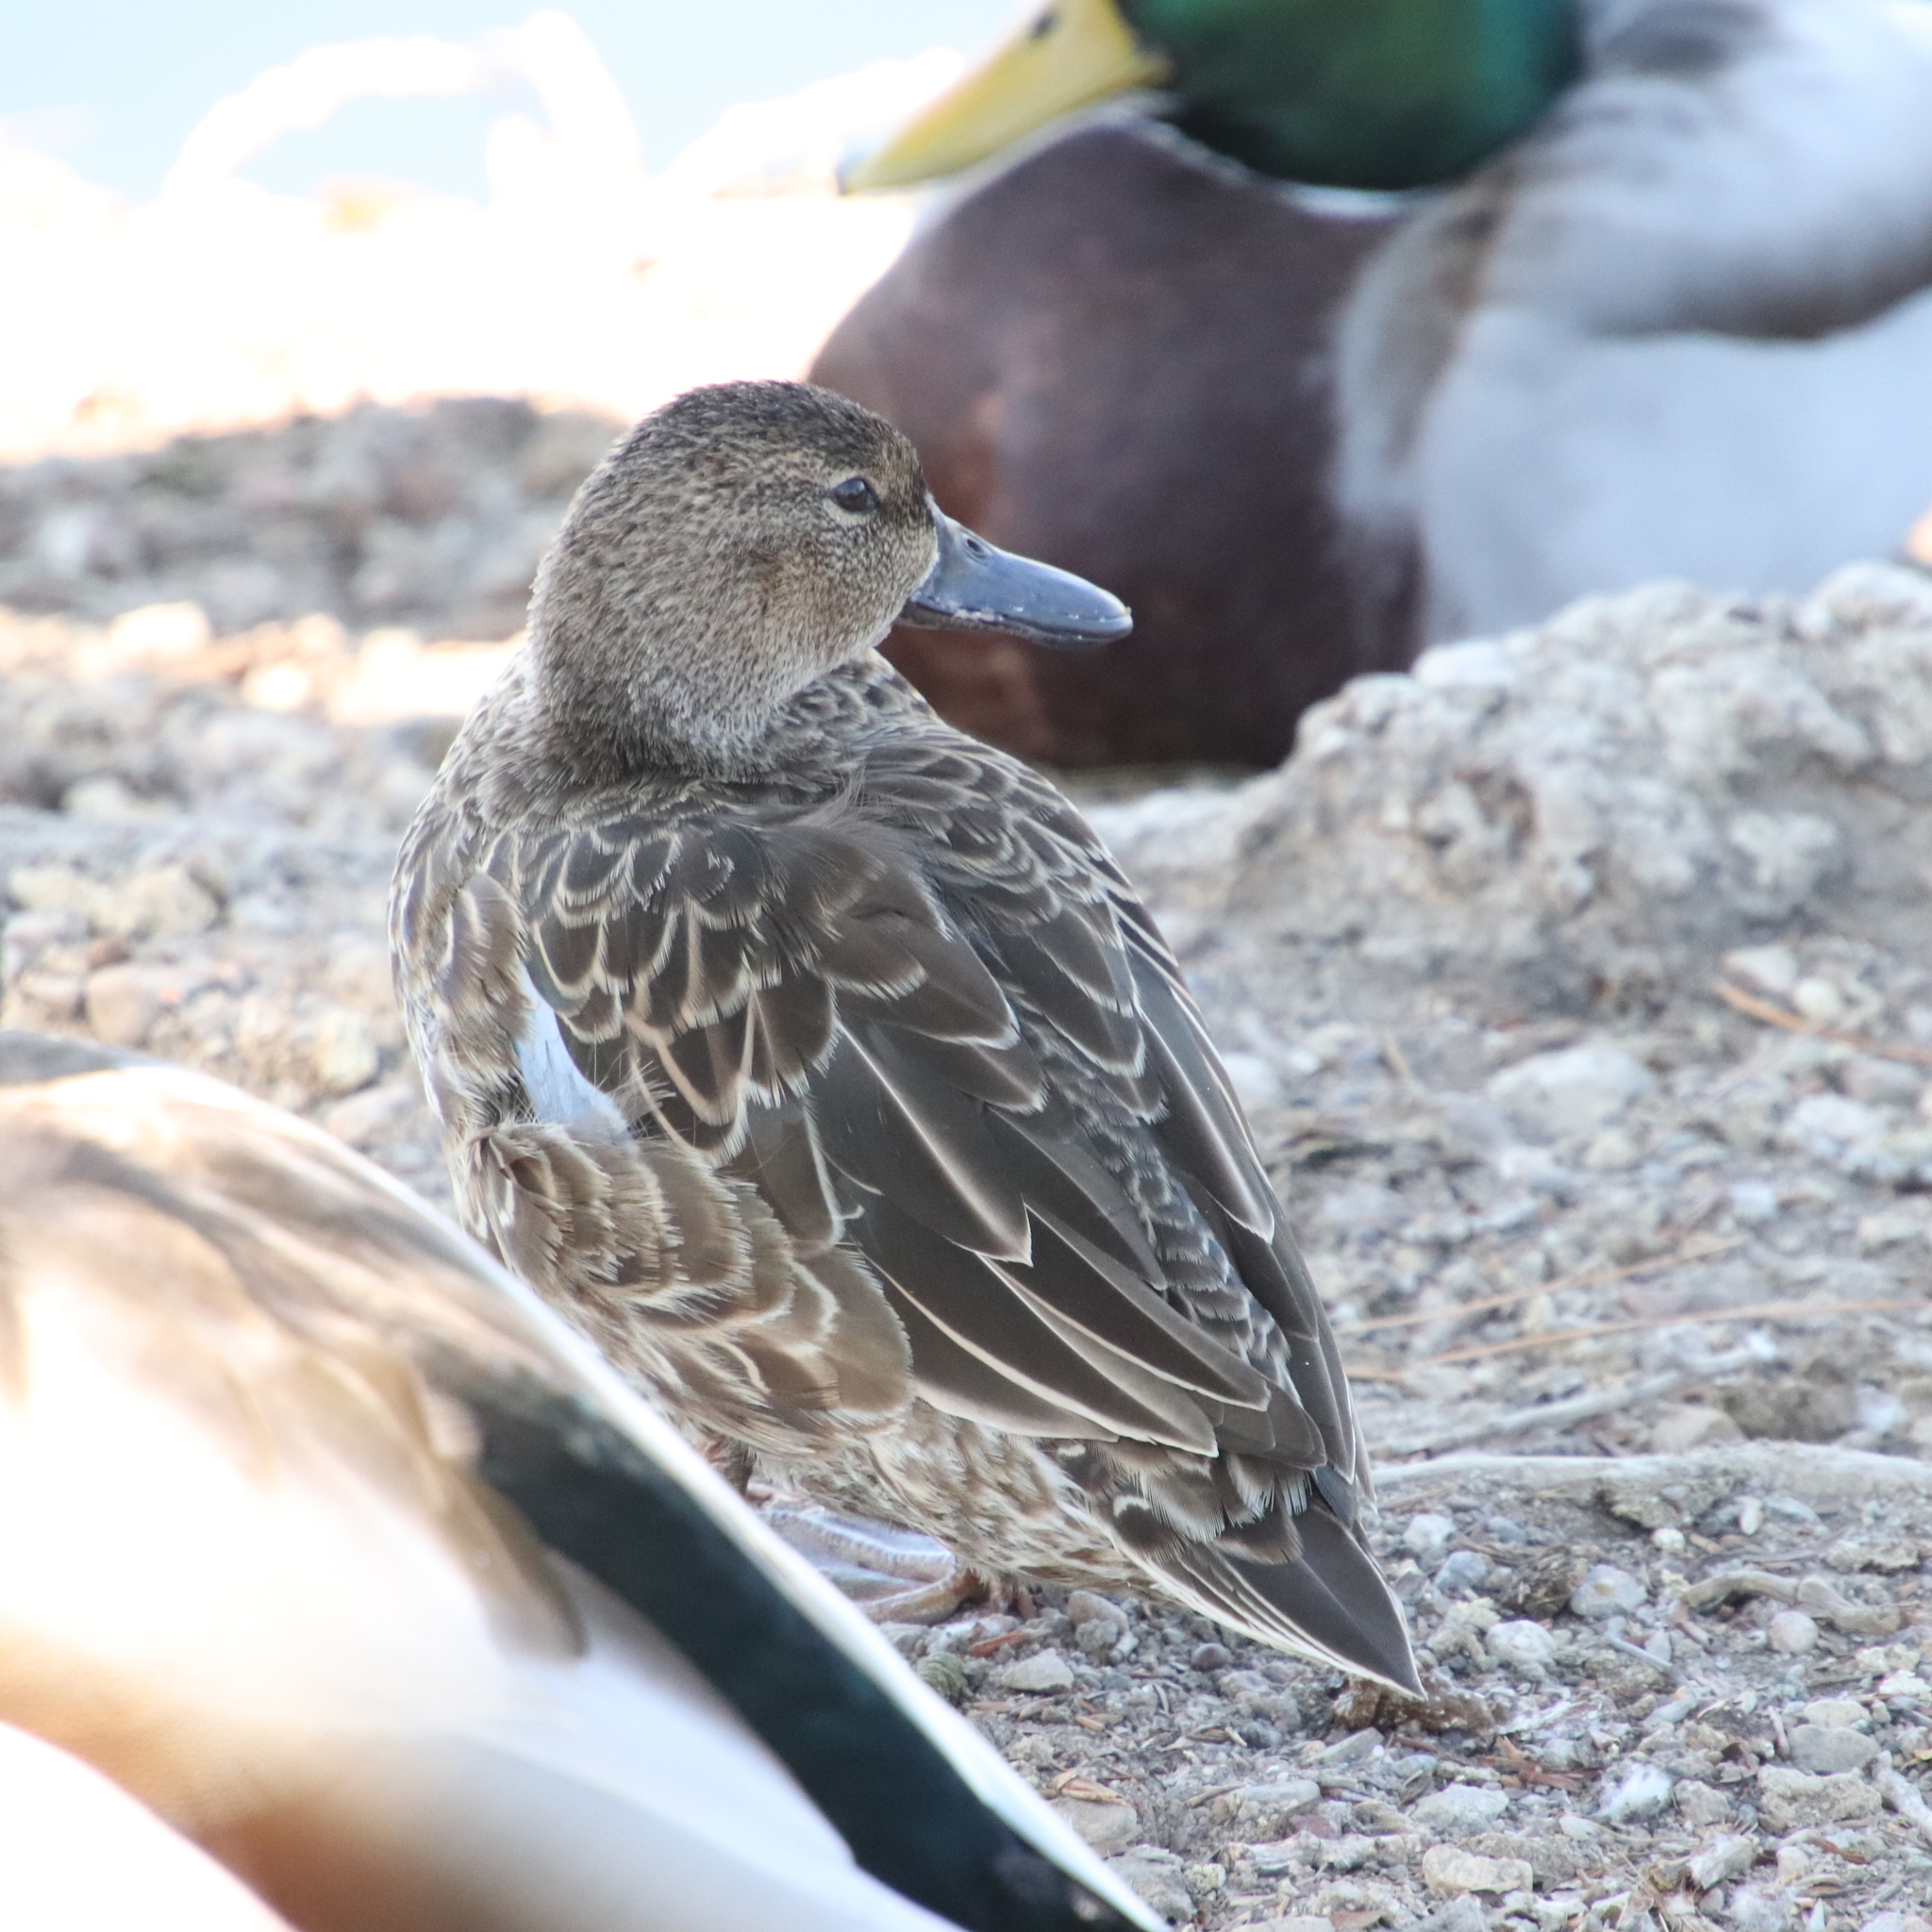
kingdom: Animalia
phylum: Chordata
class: Aves
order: Anseriformes
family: Anatidae
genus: Spatula
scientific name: Spatula cyanoptera
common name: Cinnamon teal
